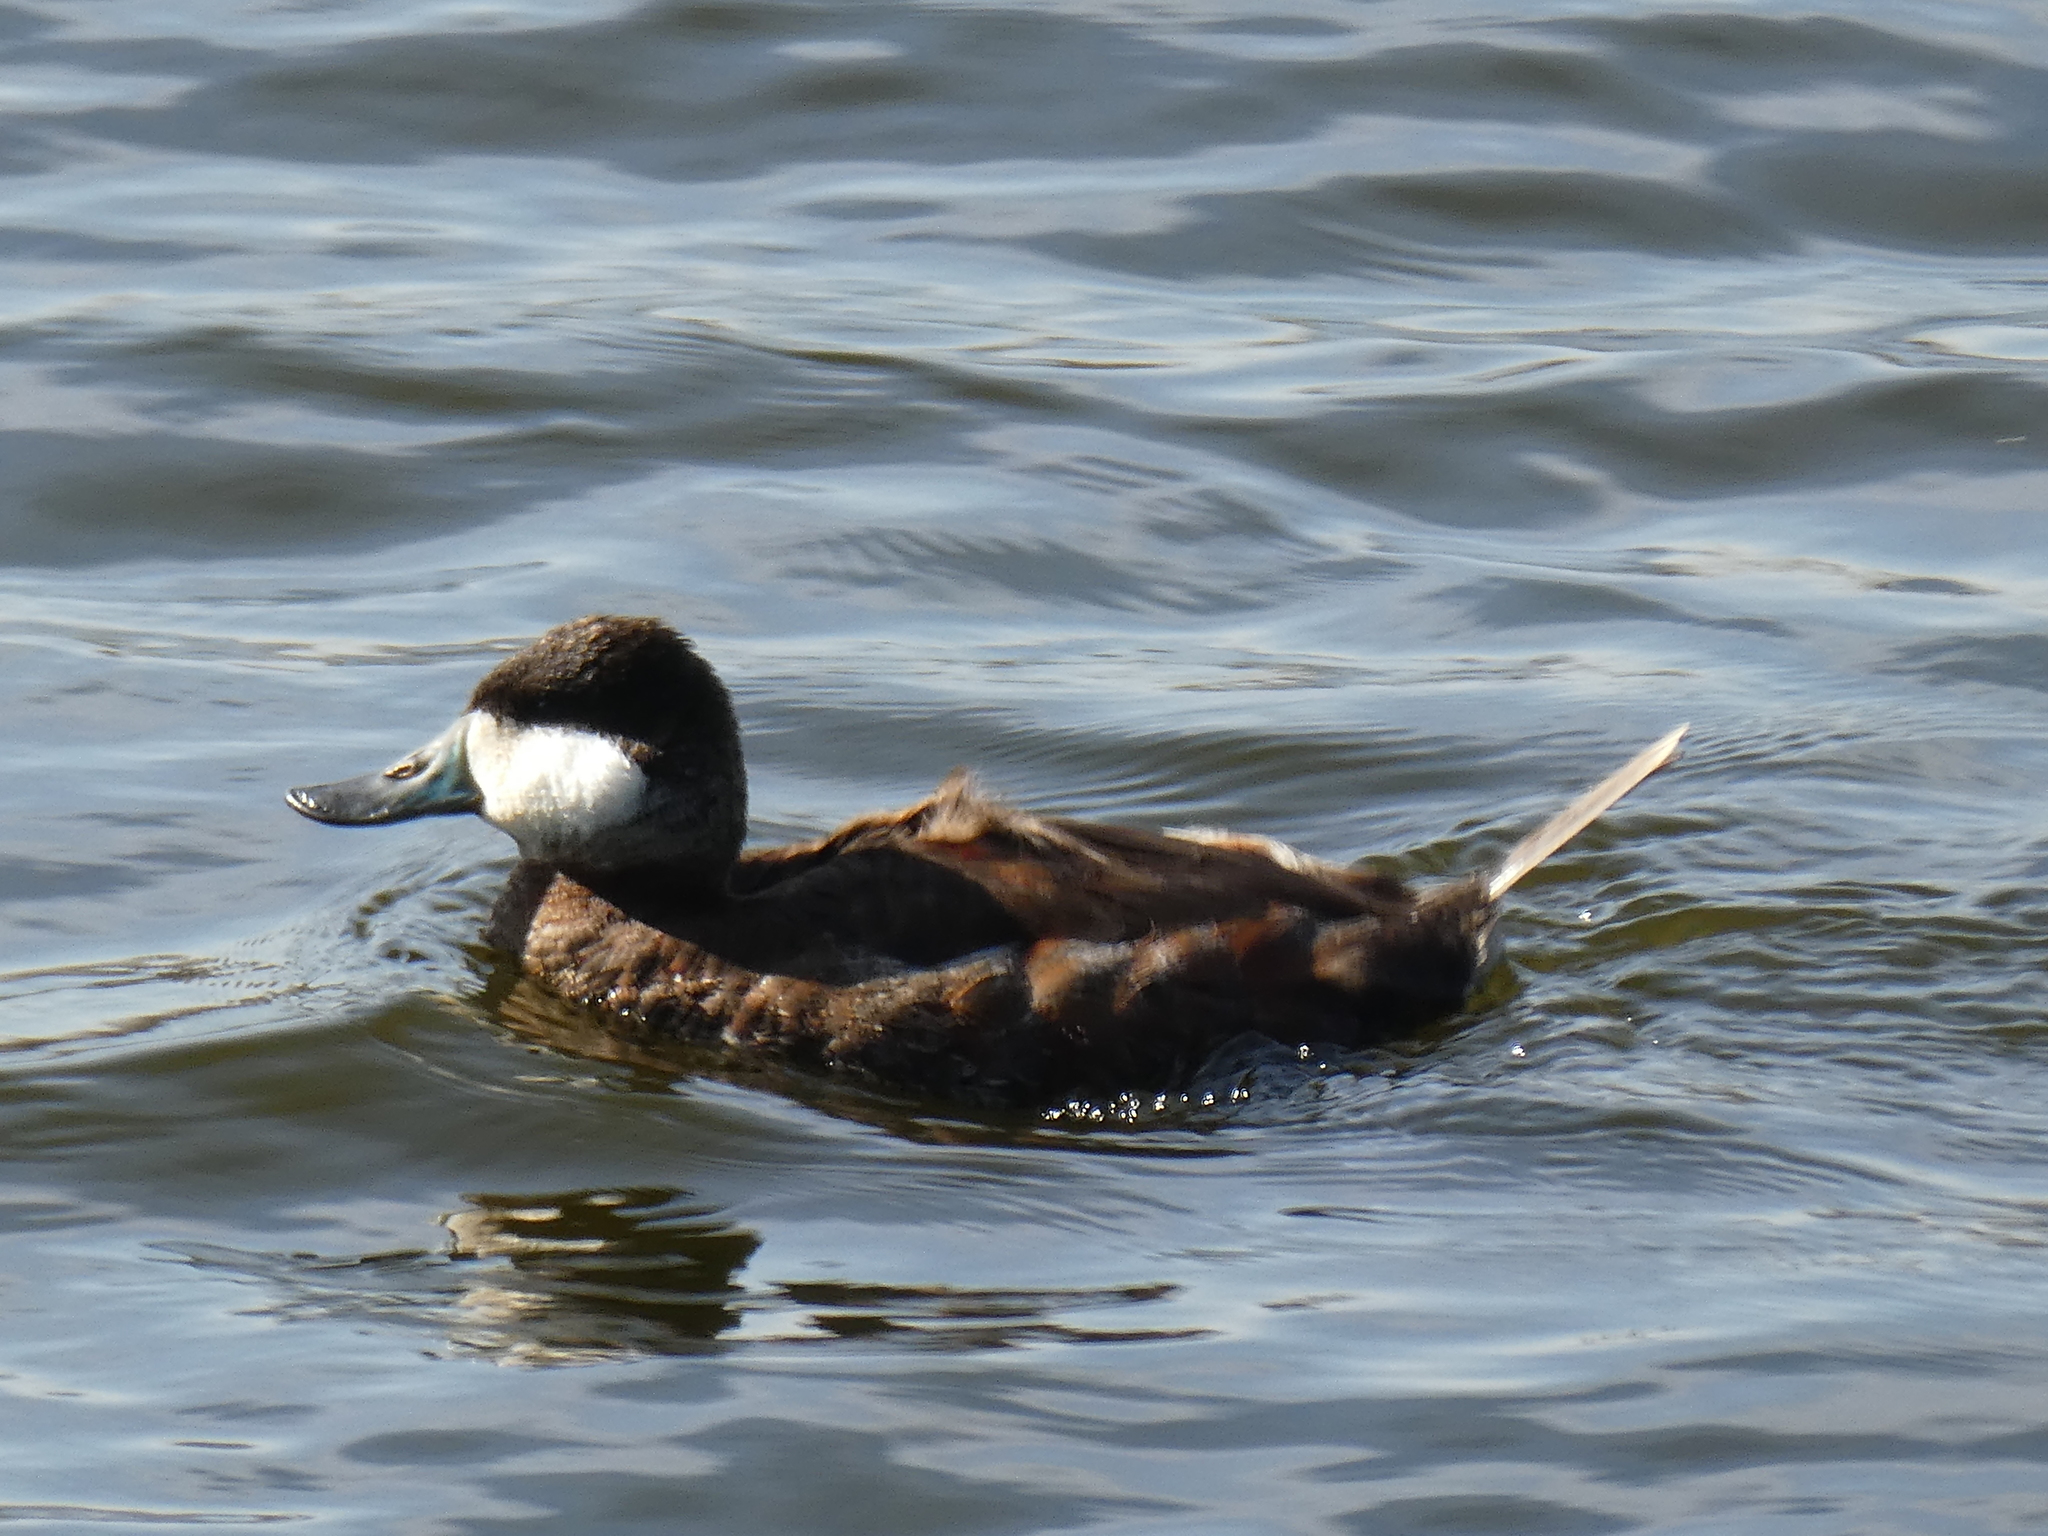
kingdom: Animalia
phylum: Chordata
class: Aves
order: Anseriformes
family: Anatidae
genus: Oxyura
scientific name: Oxyura jamaicensis
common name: Ruddy duck
